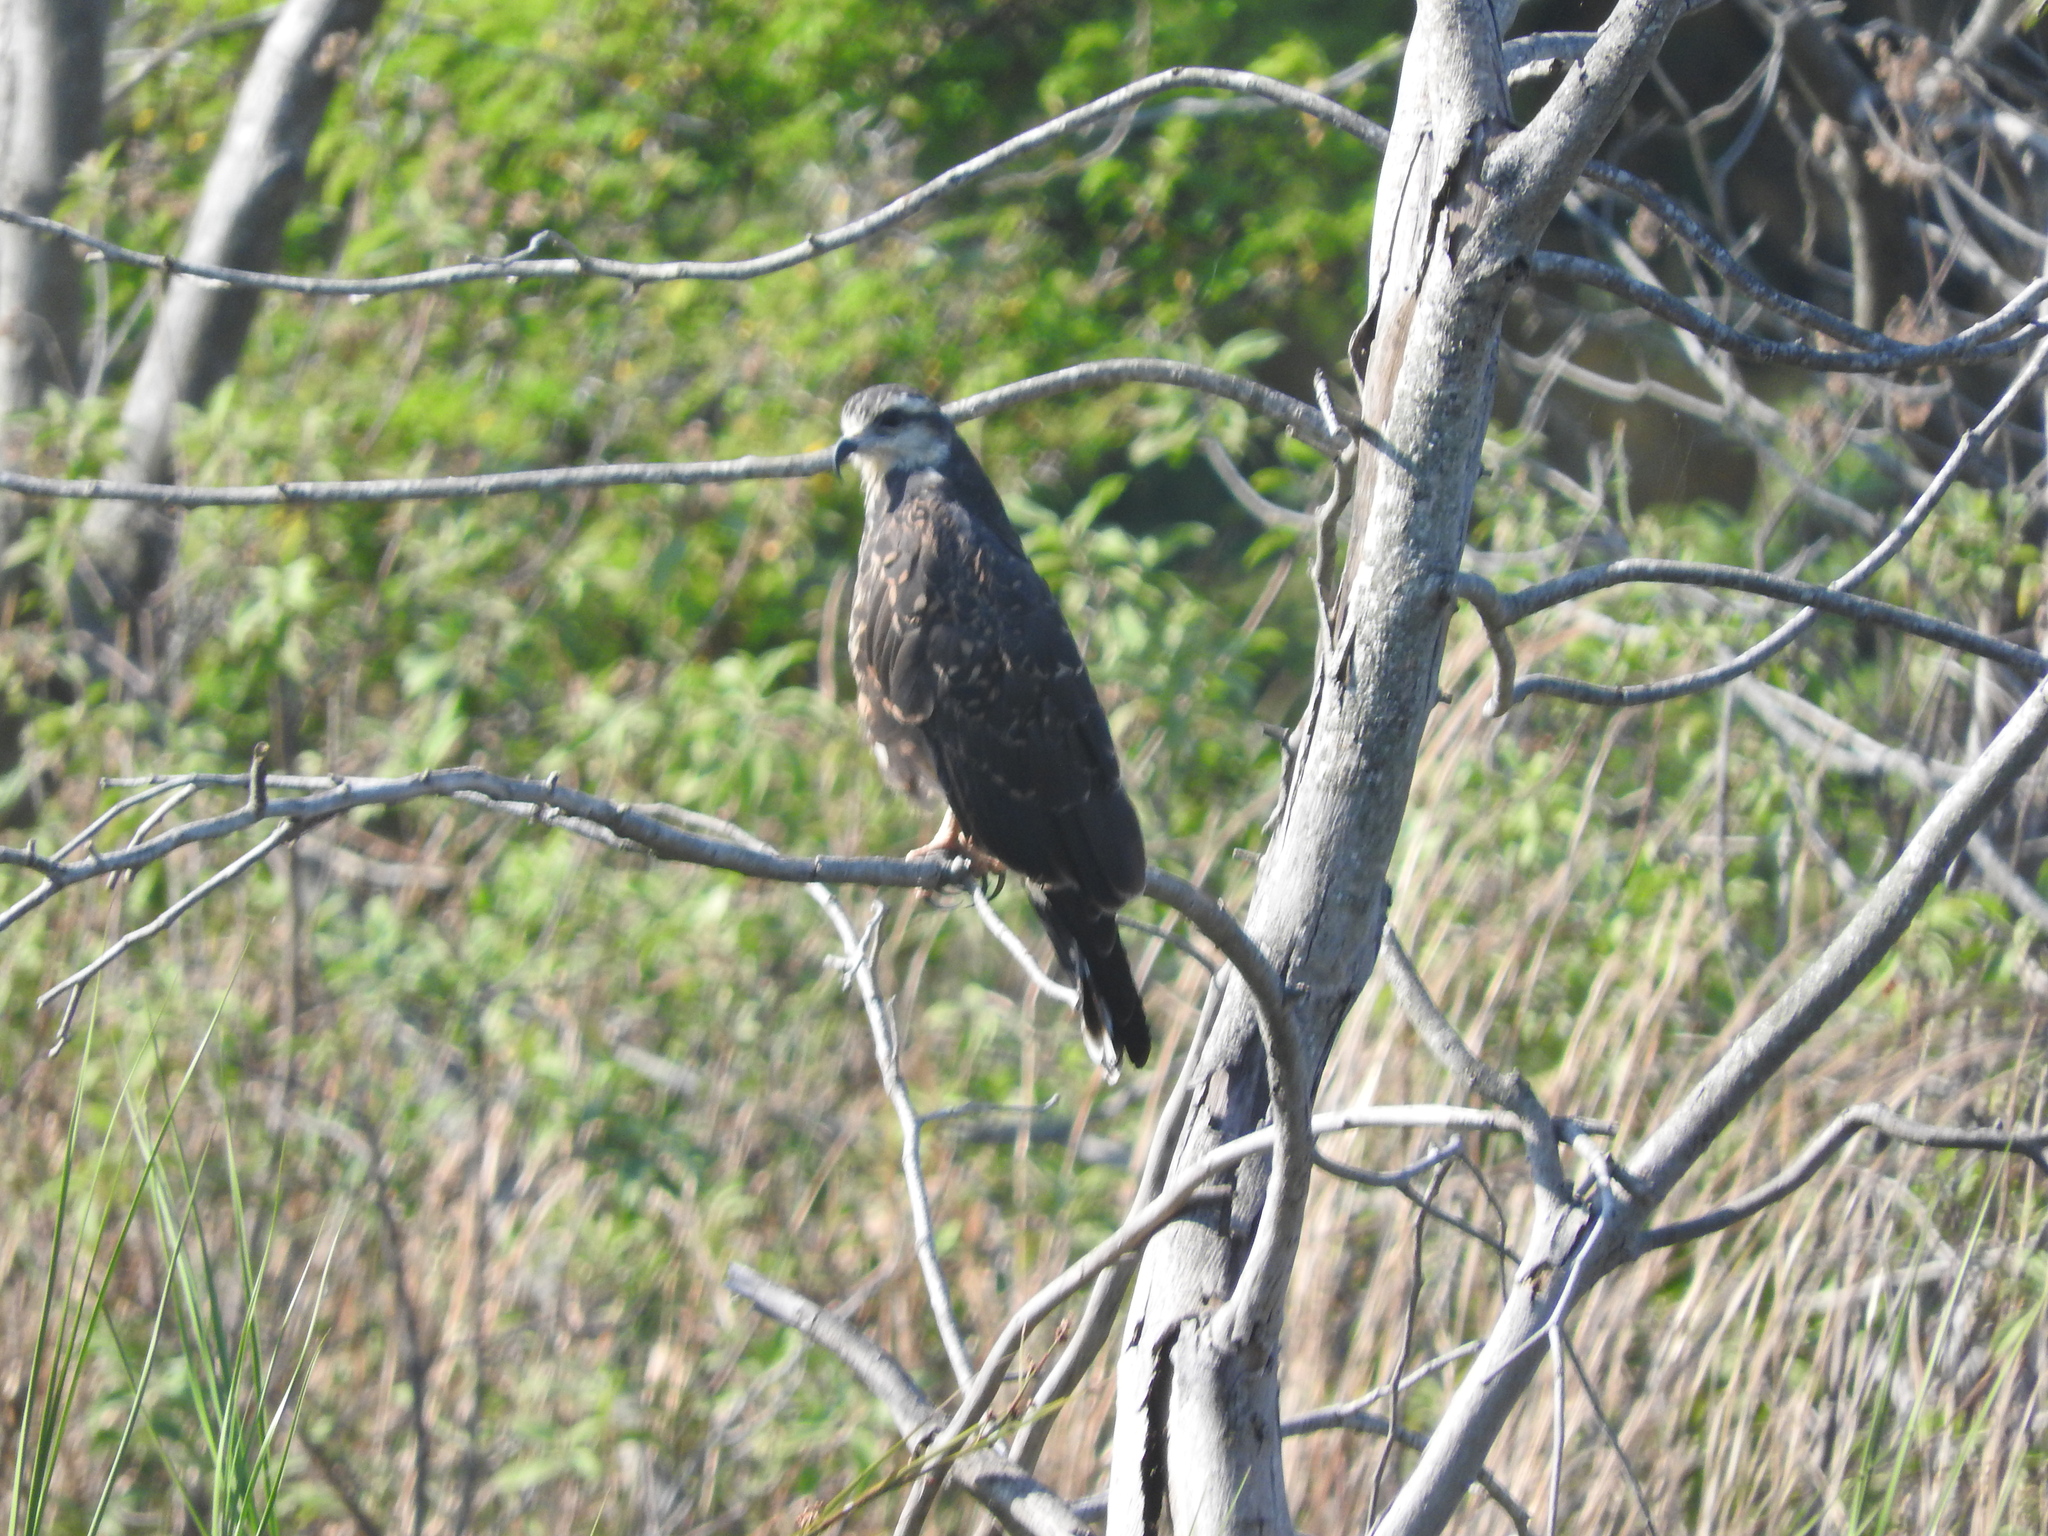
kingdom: Animalia
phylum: Chordata
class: Aves
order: Accipitriformes
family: Accipitridae
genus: Rostrhamus
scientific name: Rostrhamus sociabilis
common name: Snail kite
